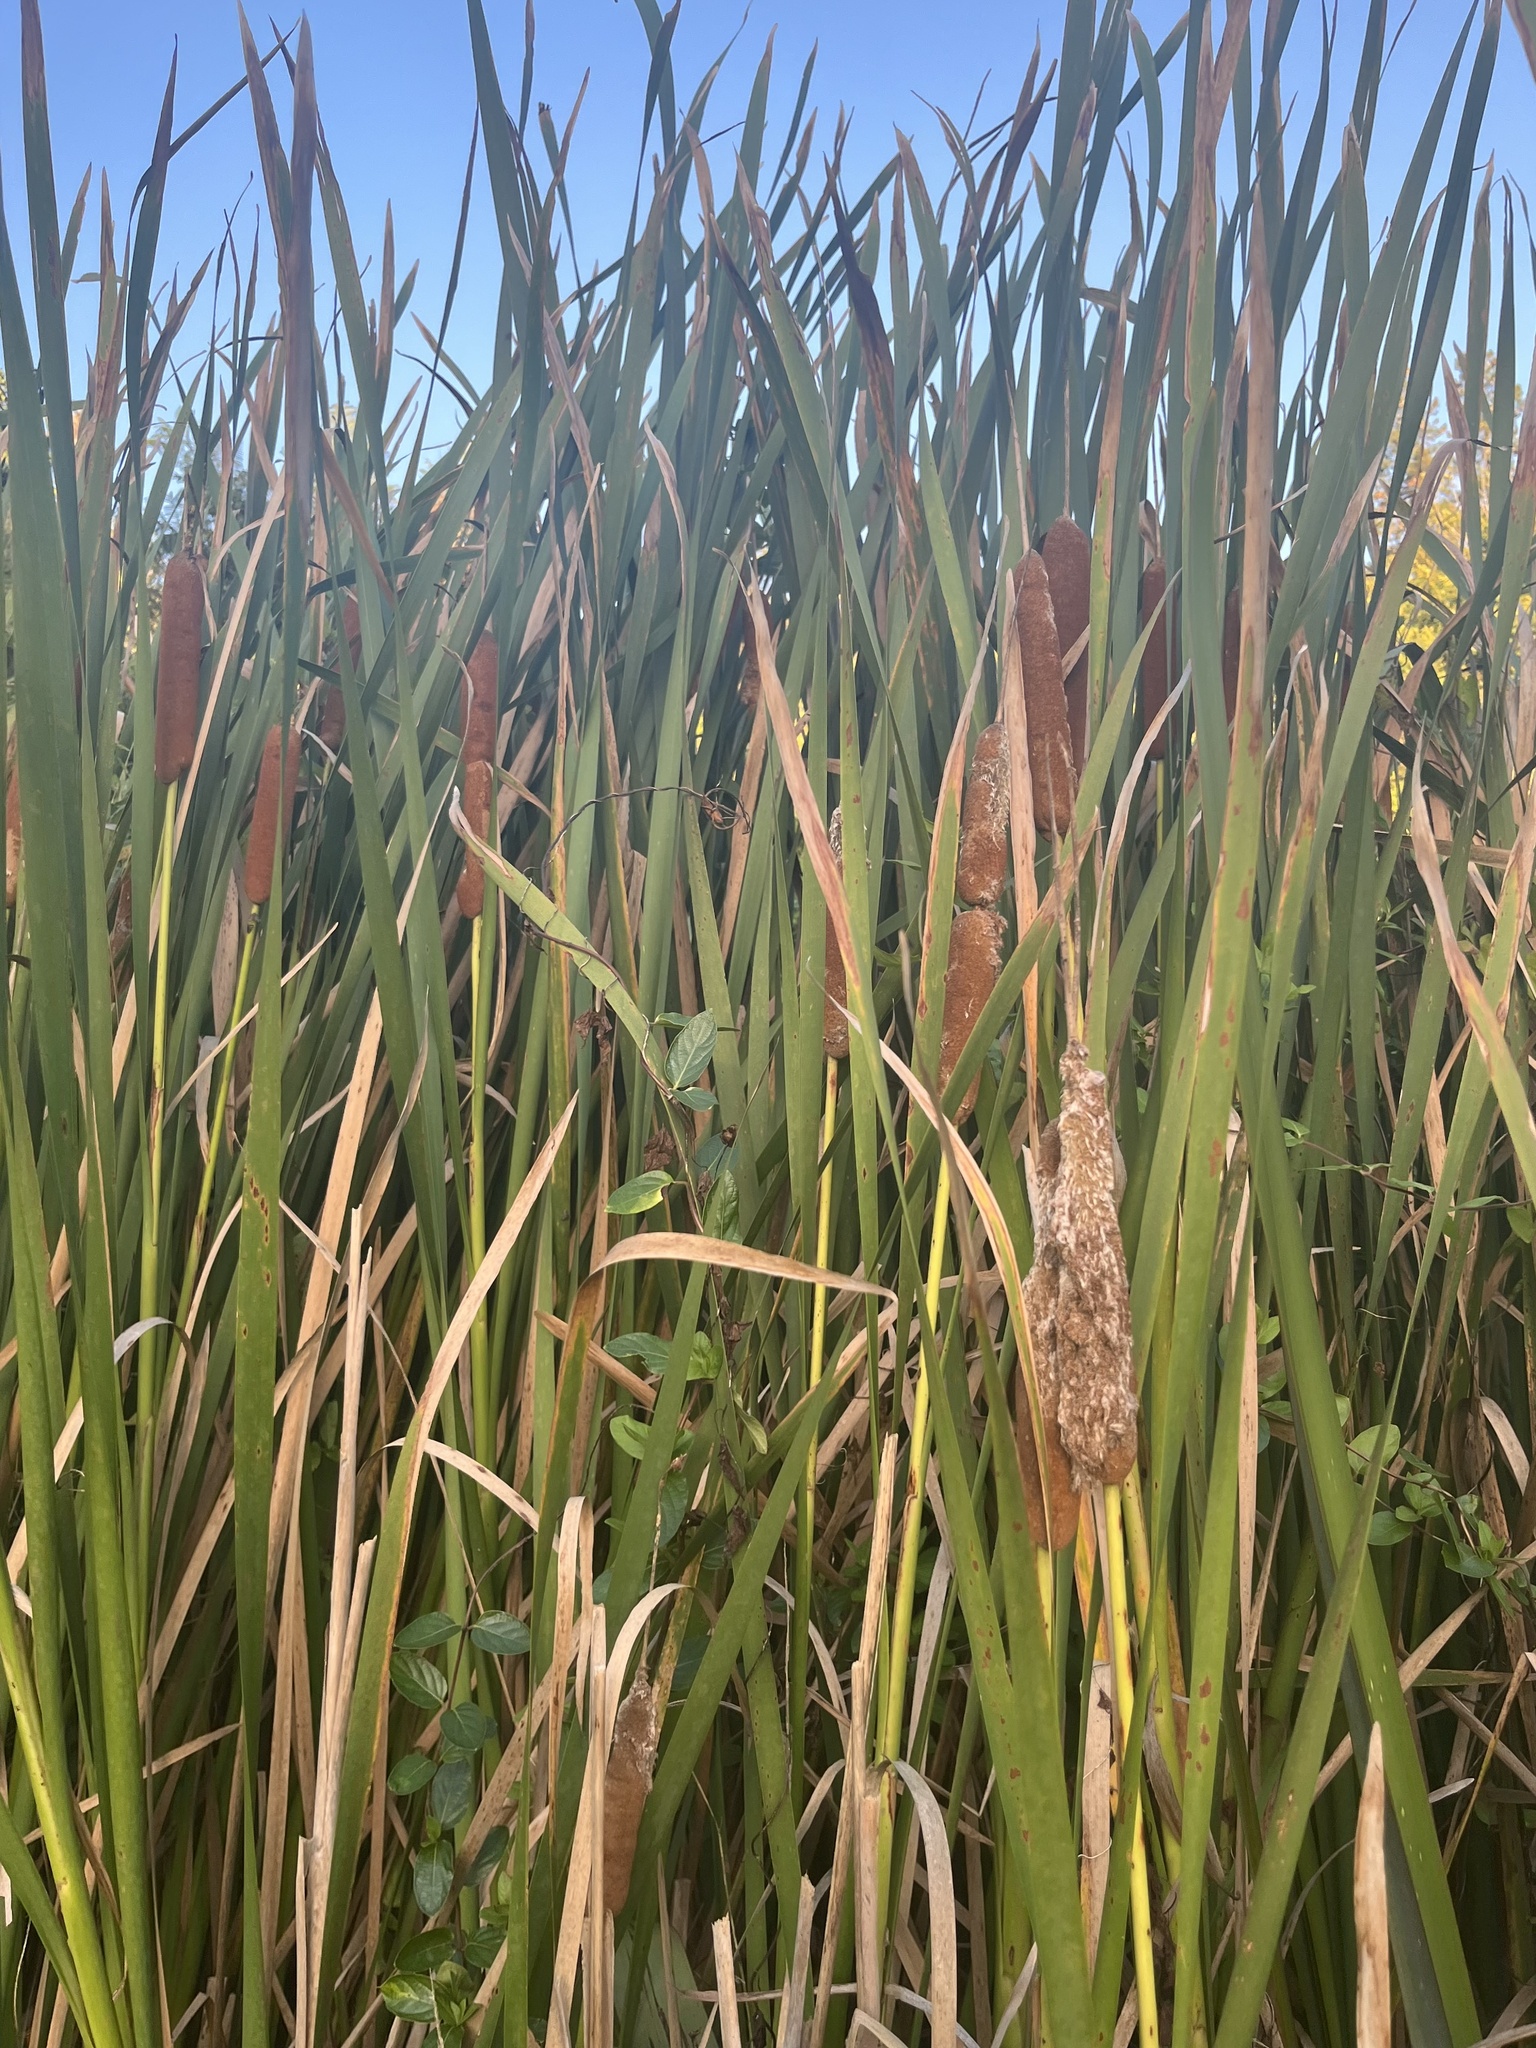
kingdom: Plantae
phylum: Tracheophyta
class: Liliopsida
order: Poales
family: Typhaceae
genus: Typha
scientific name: Typha orientalis
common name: Bullrush
